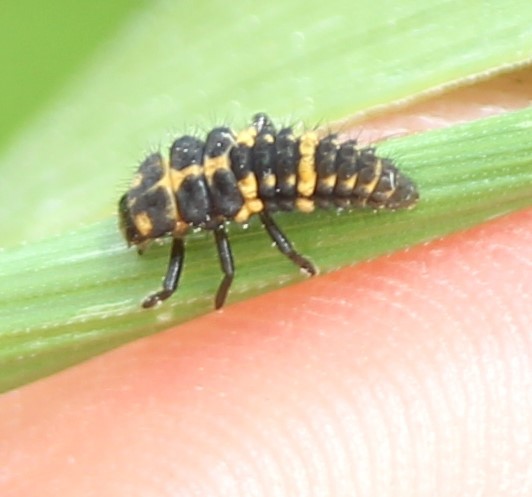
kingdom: Animalia
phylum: Arthropoda
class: Insecta
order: Coleoptera
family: Coccinellidae
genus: Coleomegilla
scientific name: Coleomegilla maculata
